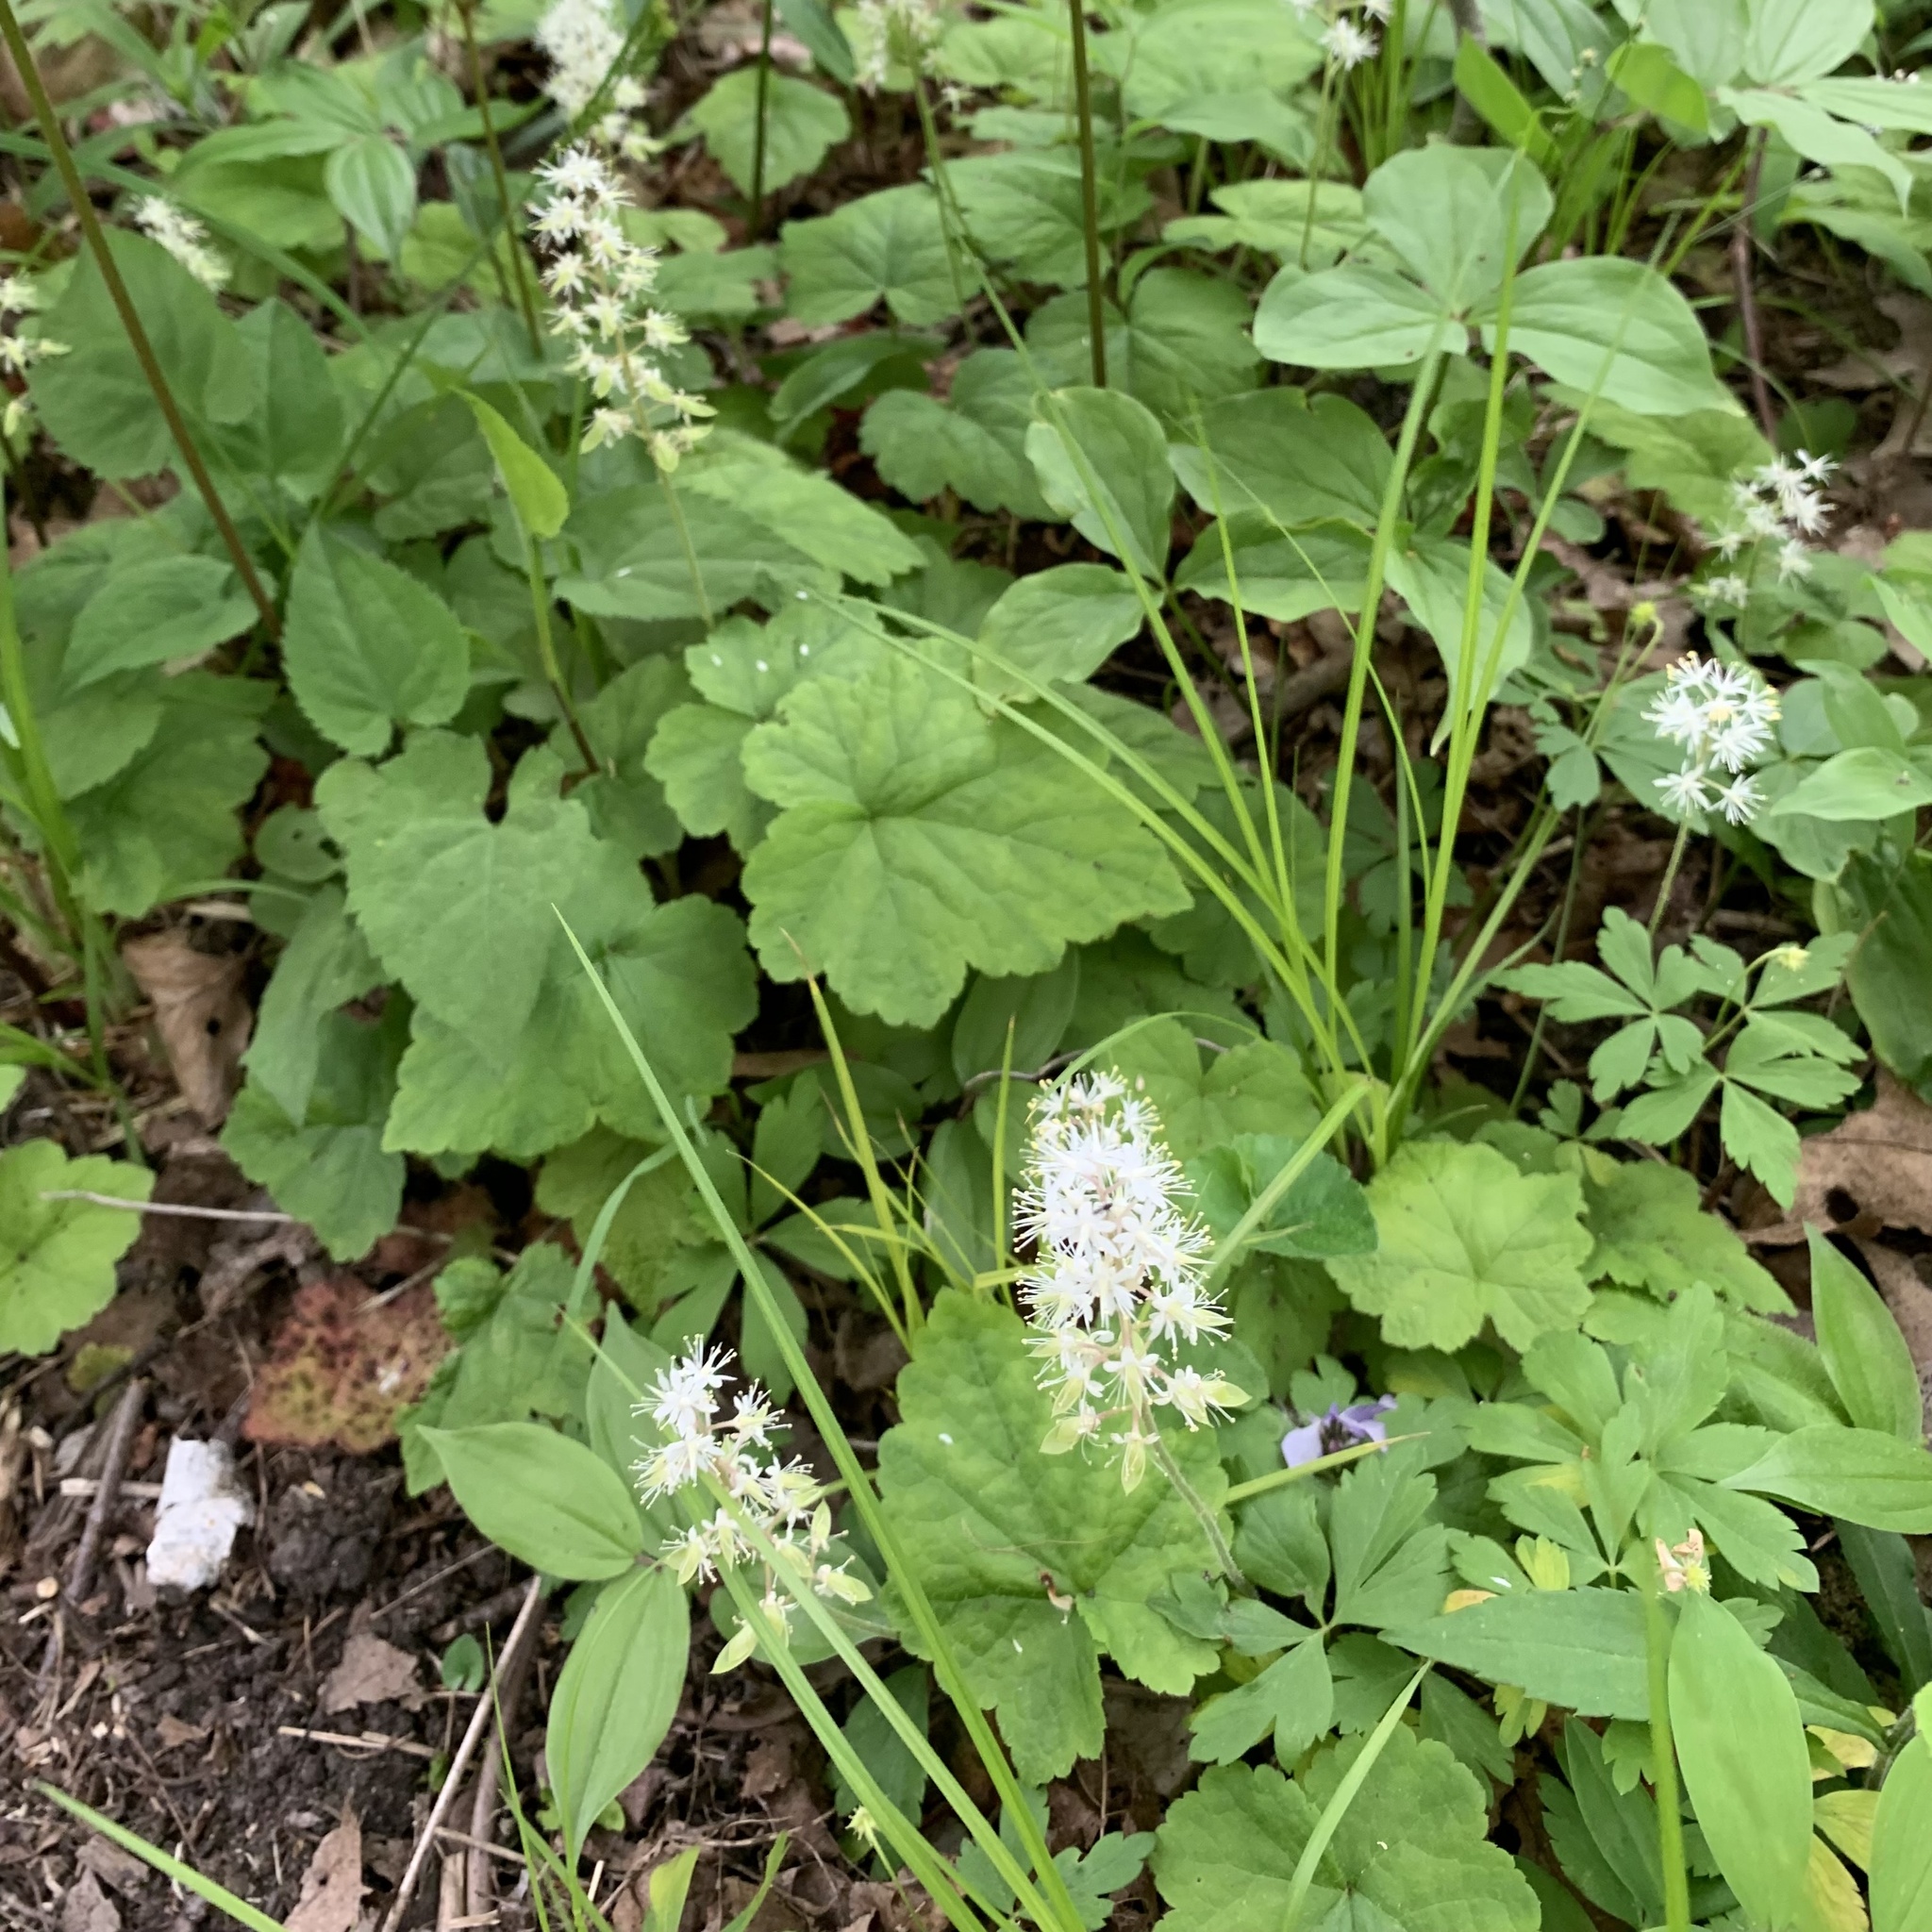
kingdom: Plantae
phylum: Tracheophyta
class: Magnoliopsida
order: Saxifragales
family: Saxifragaceae
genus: Tiarella
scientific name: Tiarella stolonifera
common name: Stoloniferous foamflower
